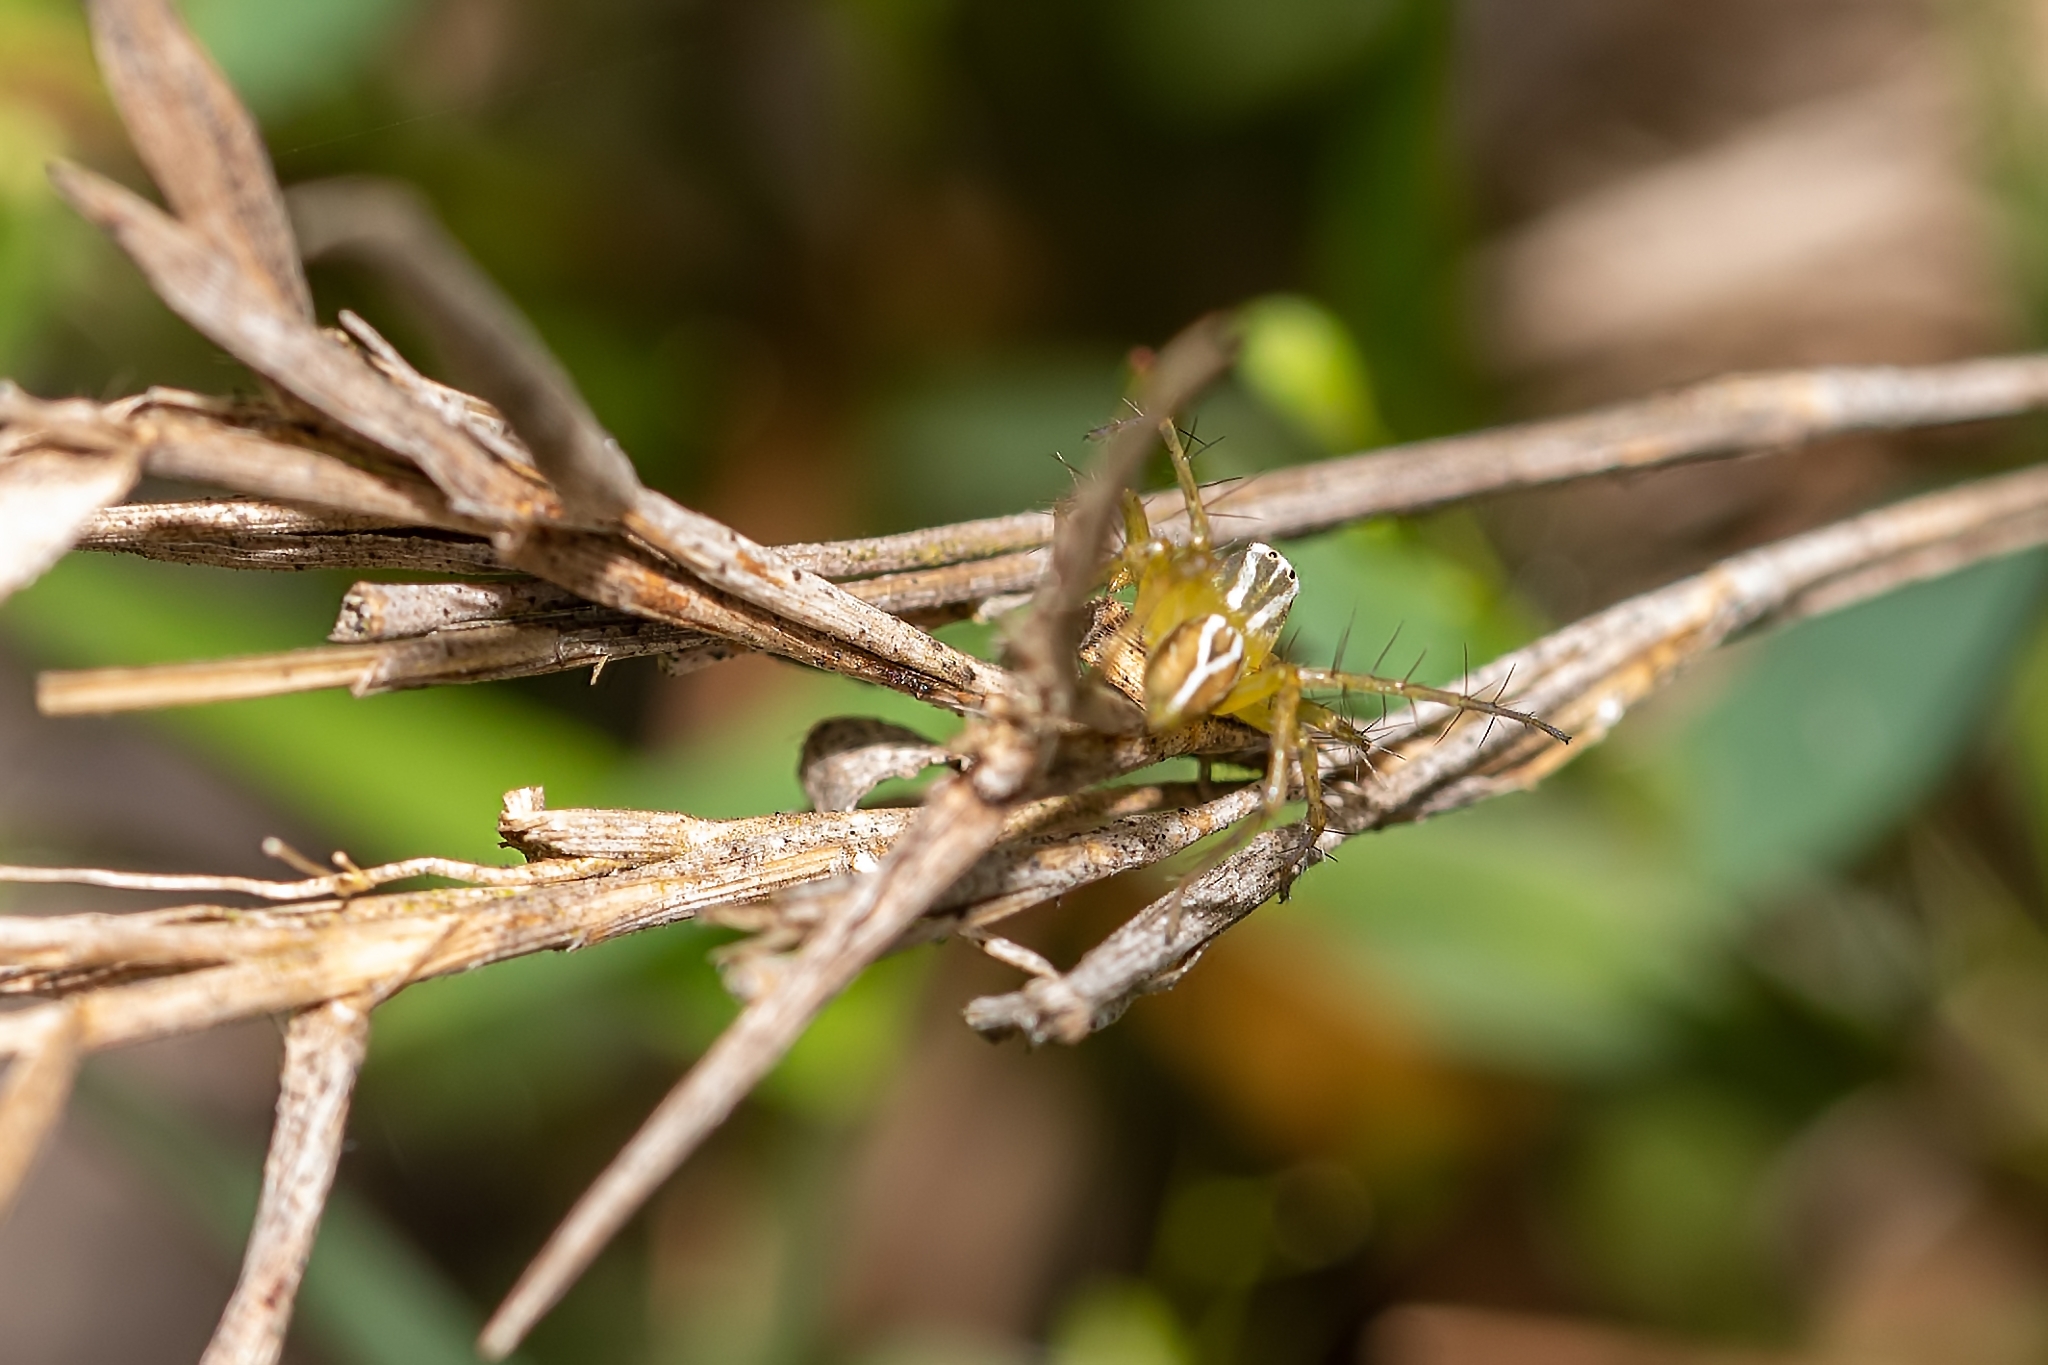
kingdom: Animalia
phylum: Arthropoda
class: Arachnida
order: Araneae
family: Oxyopidae
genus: Oxyopes
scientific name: Oxyopes salticus
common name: Lynx spiders
